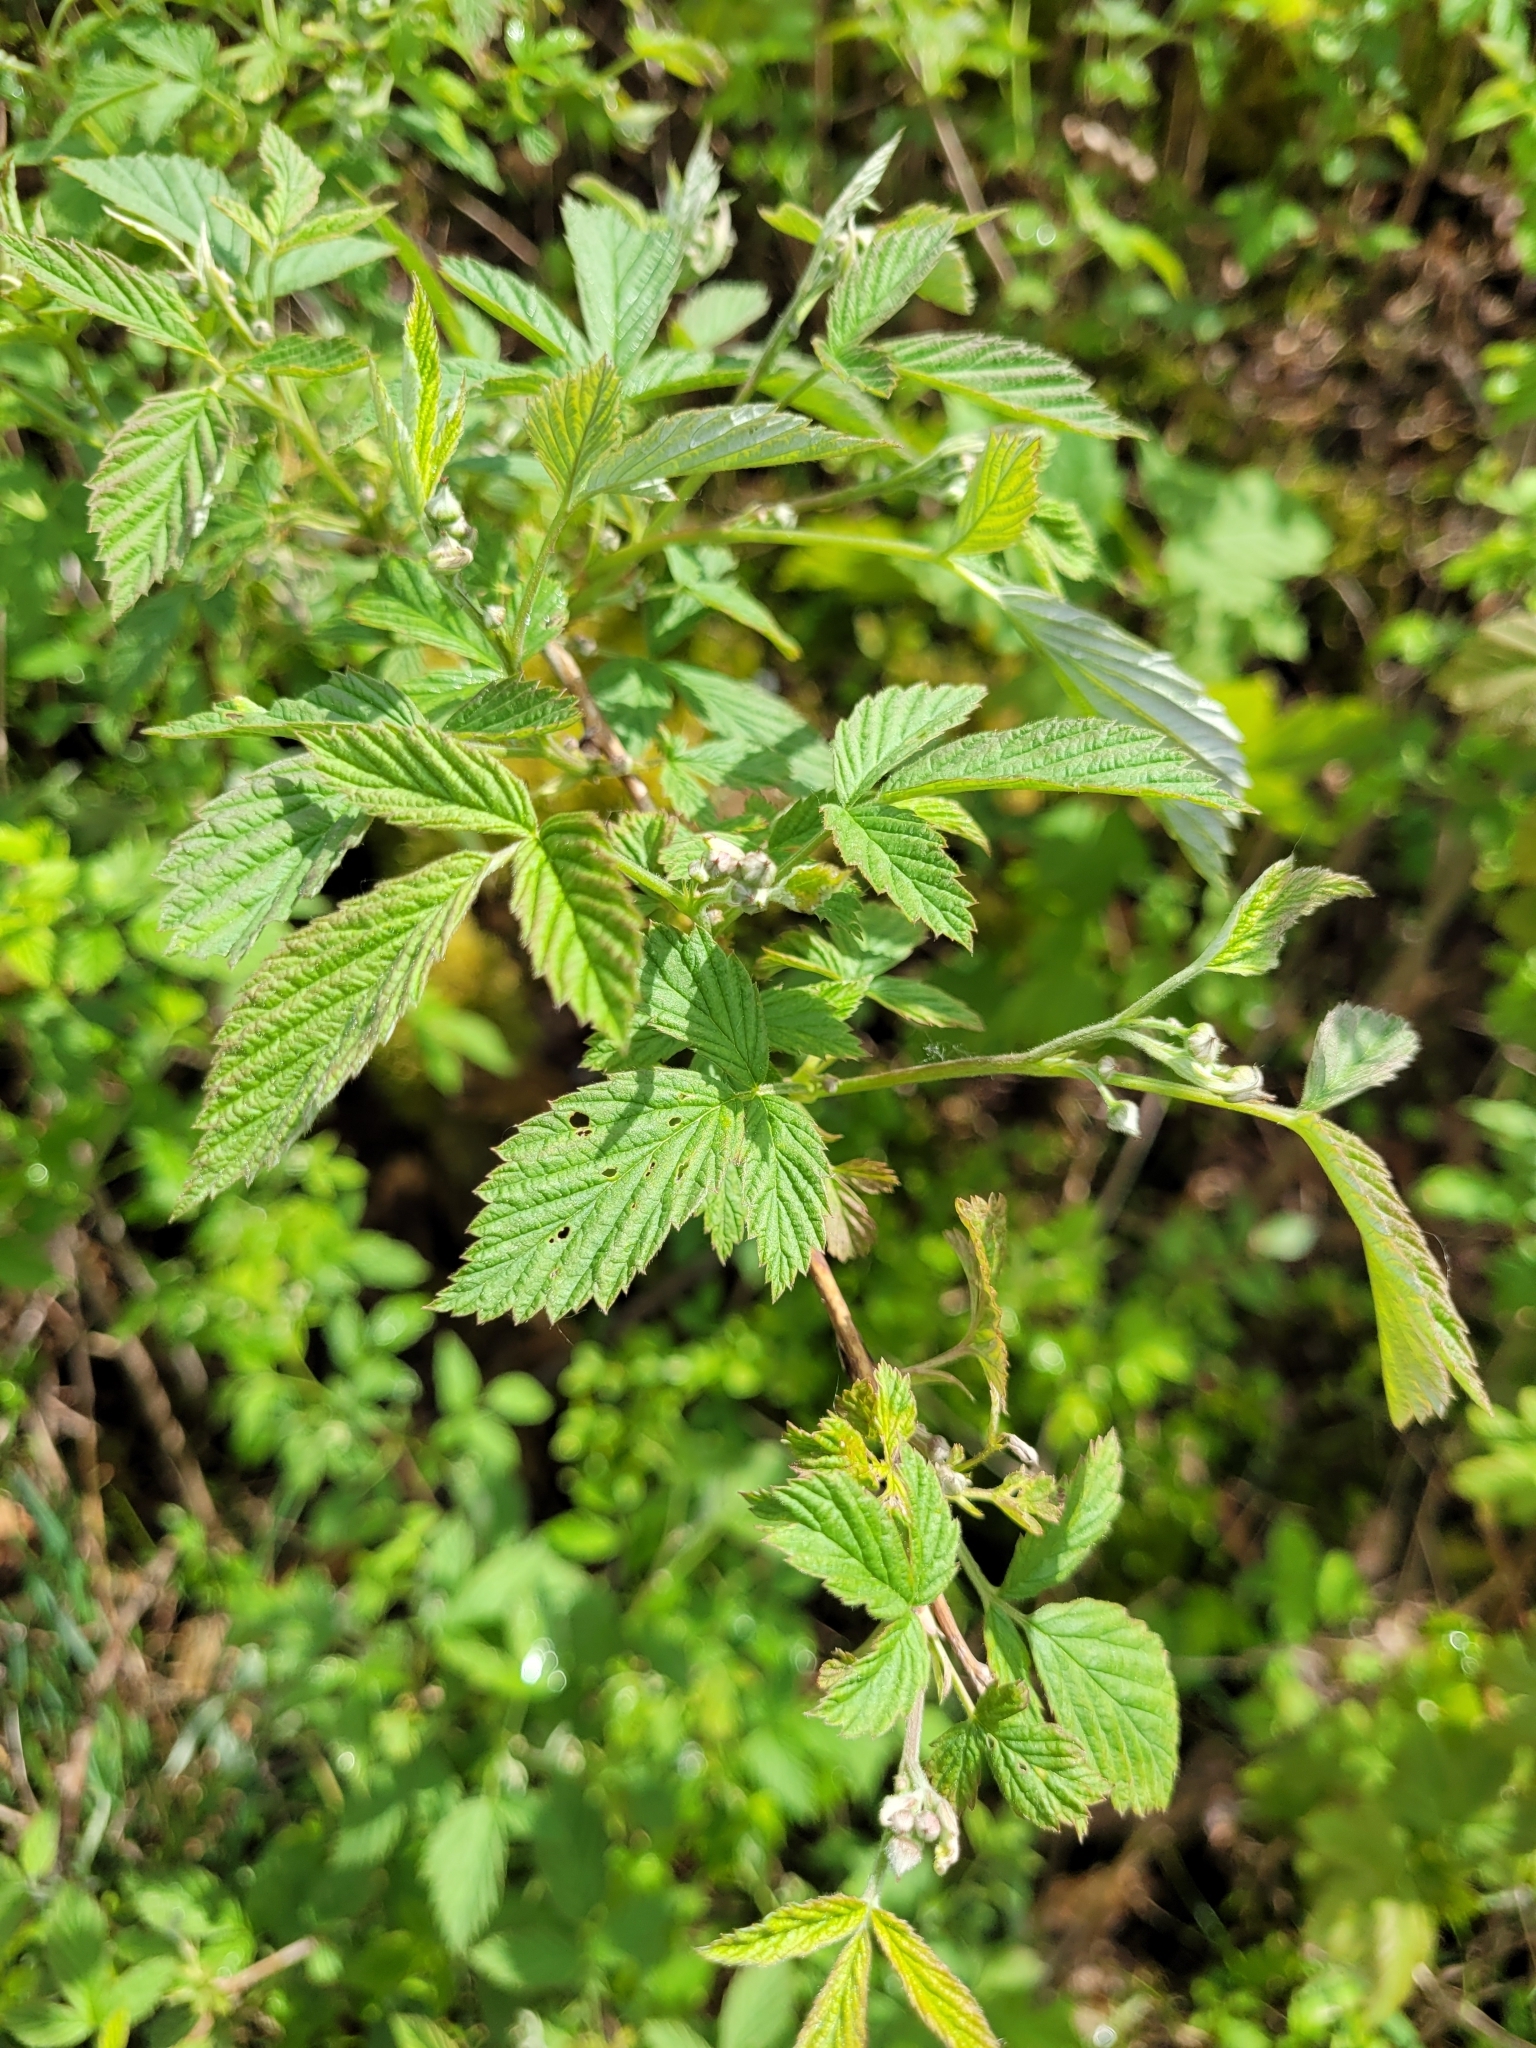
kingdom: Plantae
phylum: Tracheophyta
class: Magnoliopsida
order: Rosales
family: Rosaceae
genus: Rubus
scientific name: Rubus idaeus
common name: Raspberry
